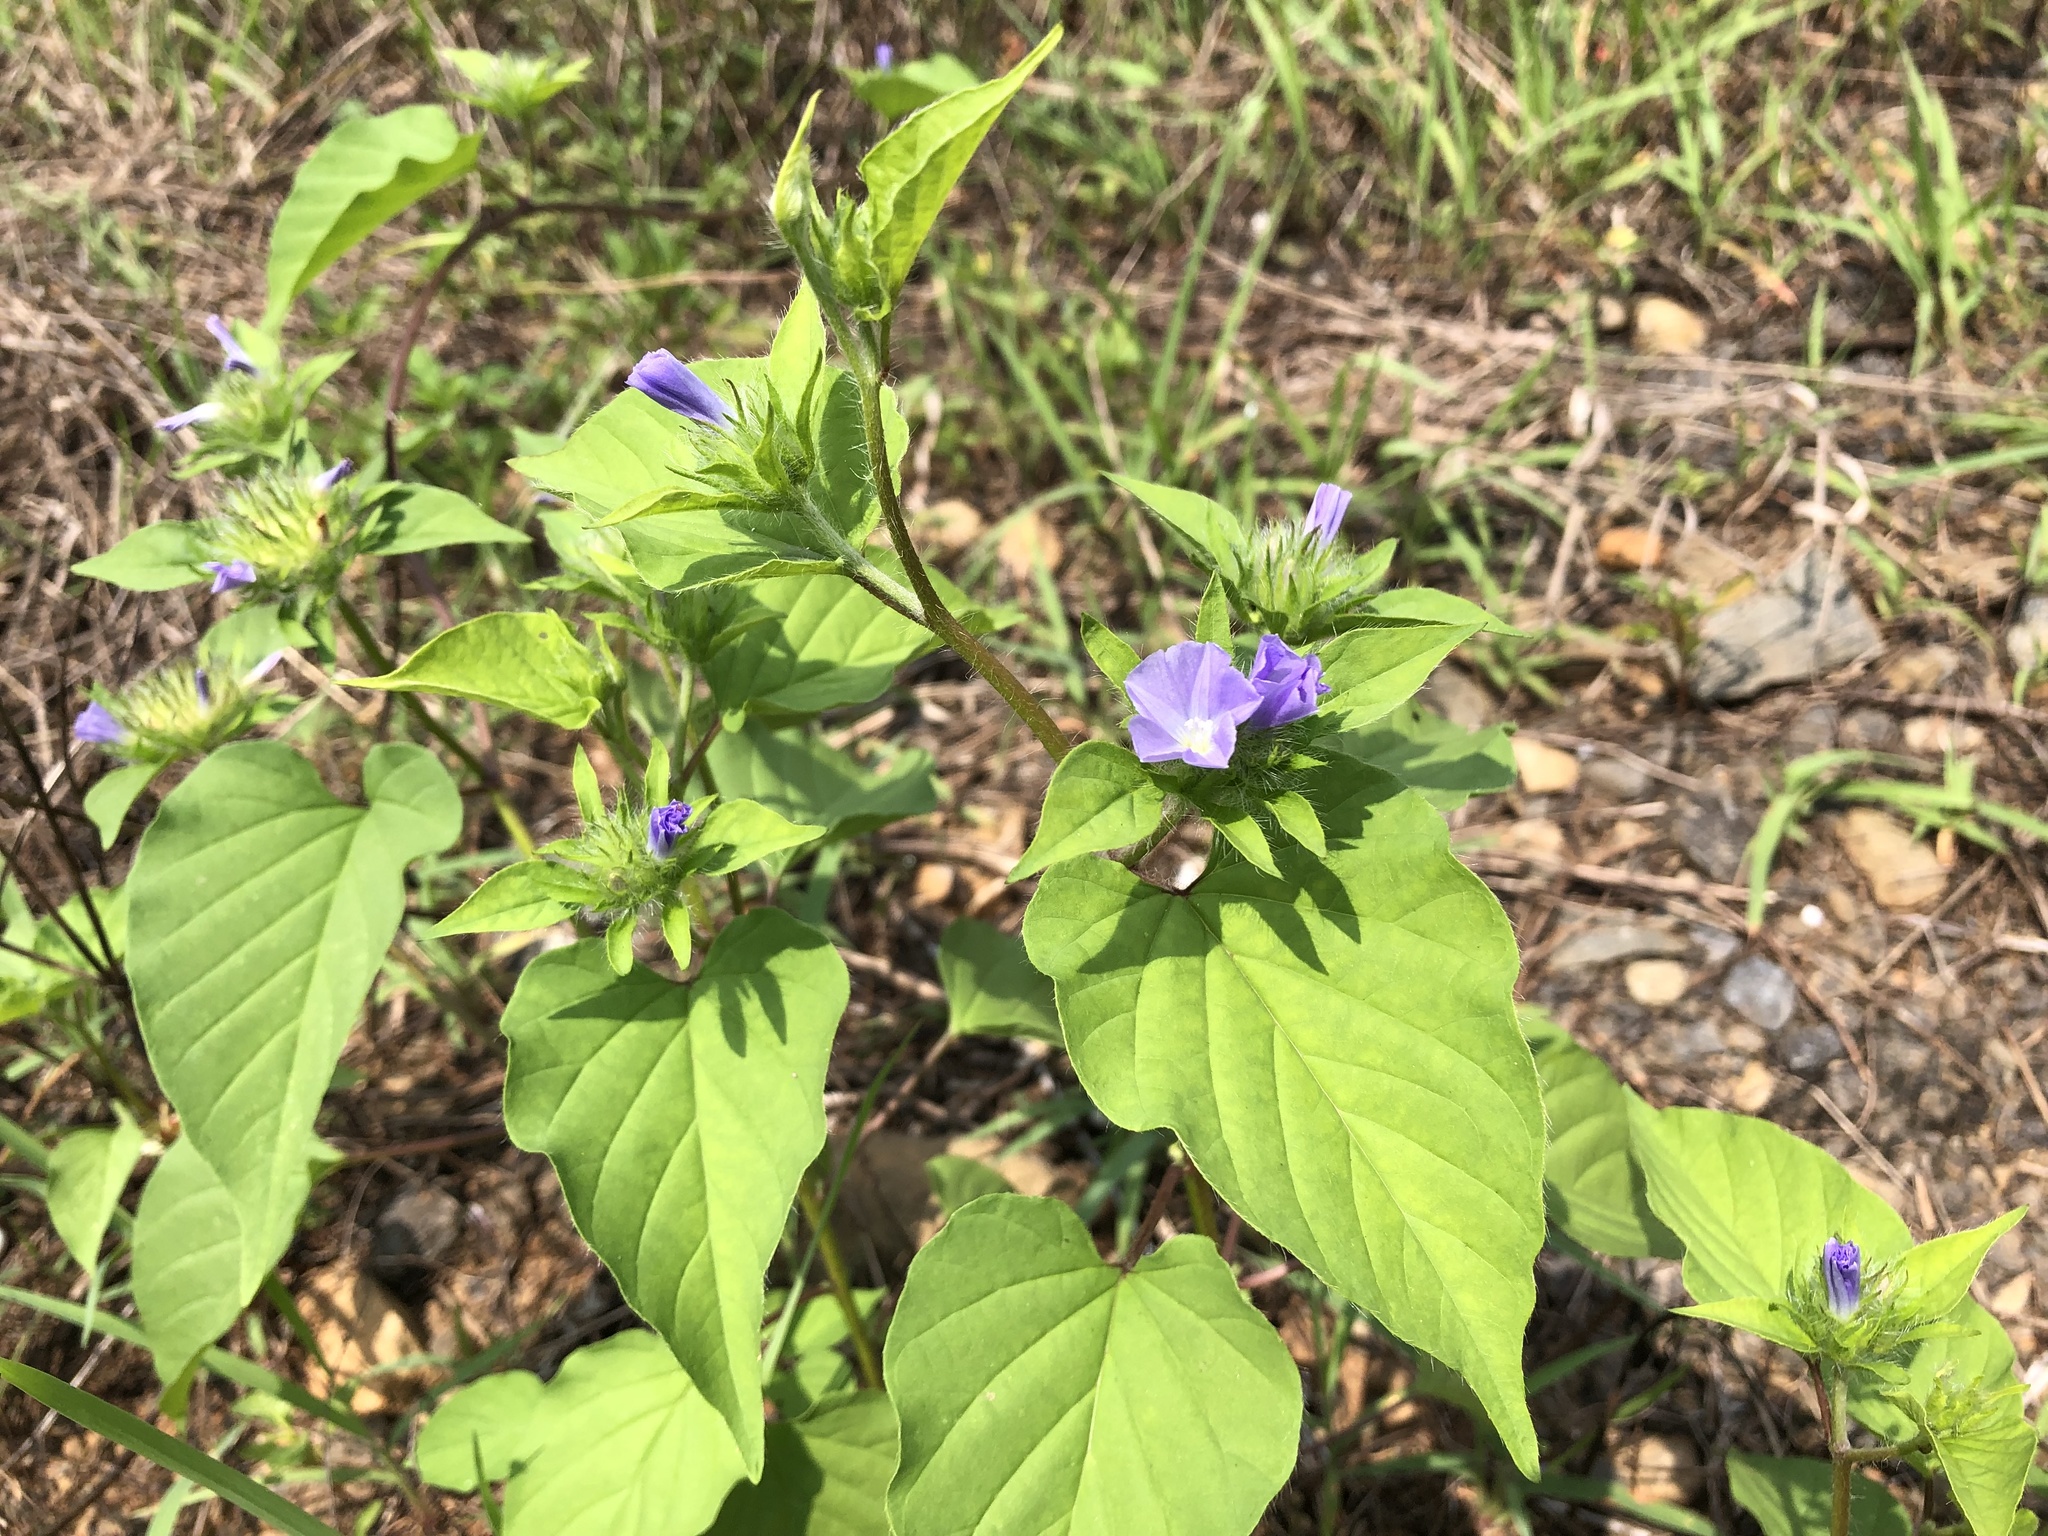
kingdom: Plantae
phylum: Tracheophyta
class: Magnoliopsida
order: Solanales
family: Convolvulaceae
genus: Jacquemontia
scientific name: Jacquemontia tamnifolia
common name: Hairy clustervine
